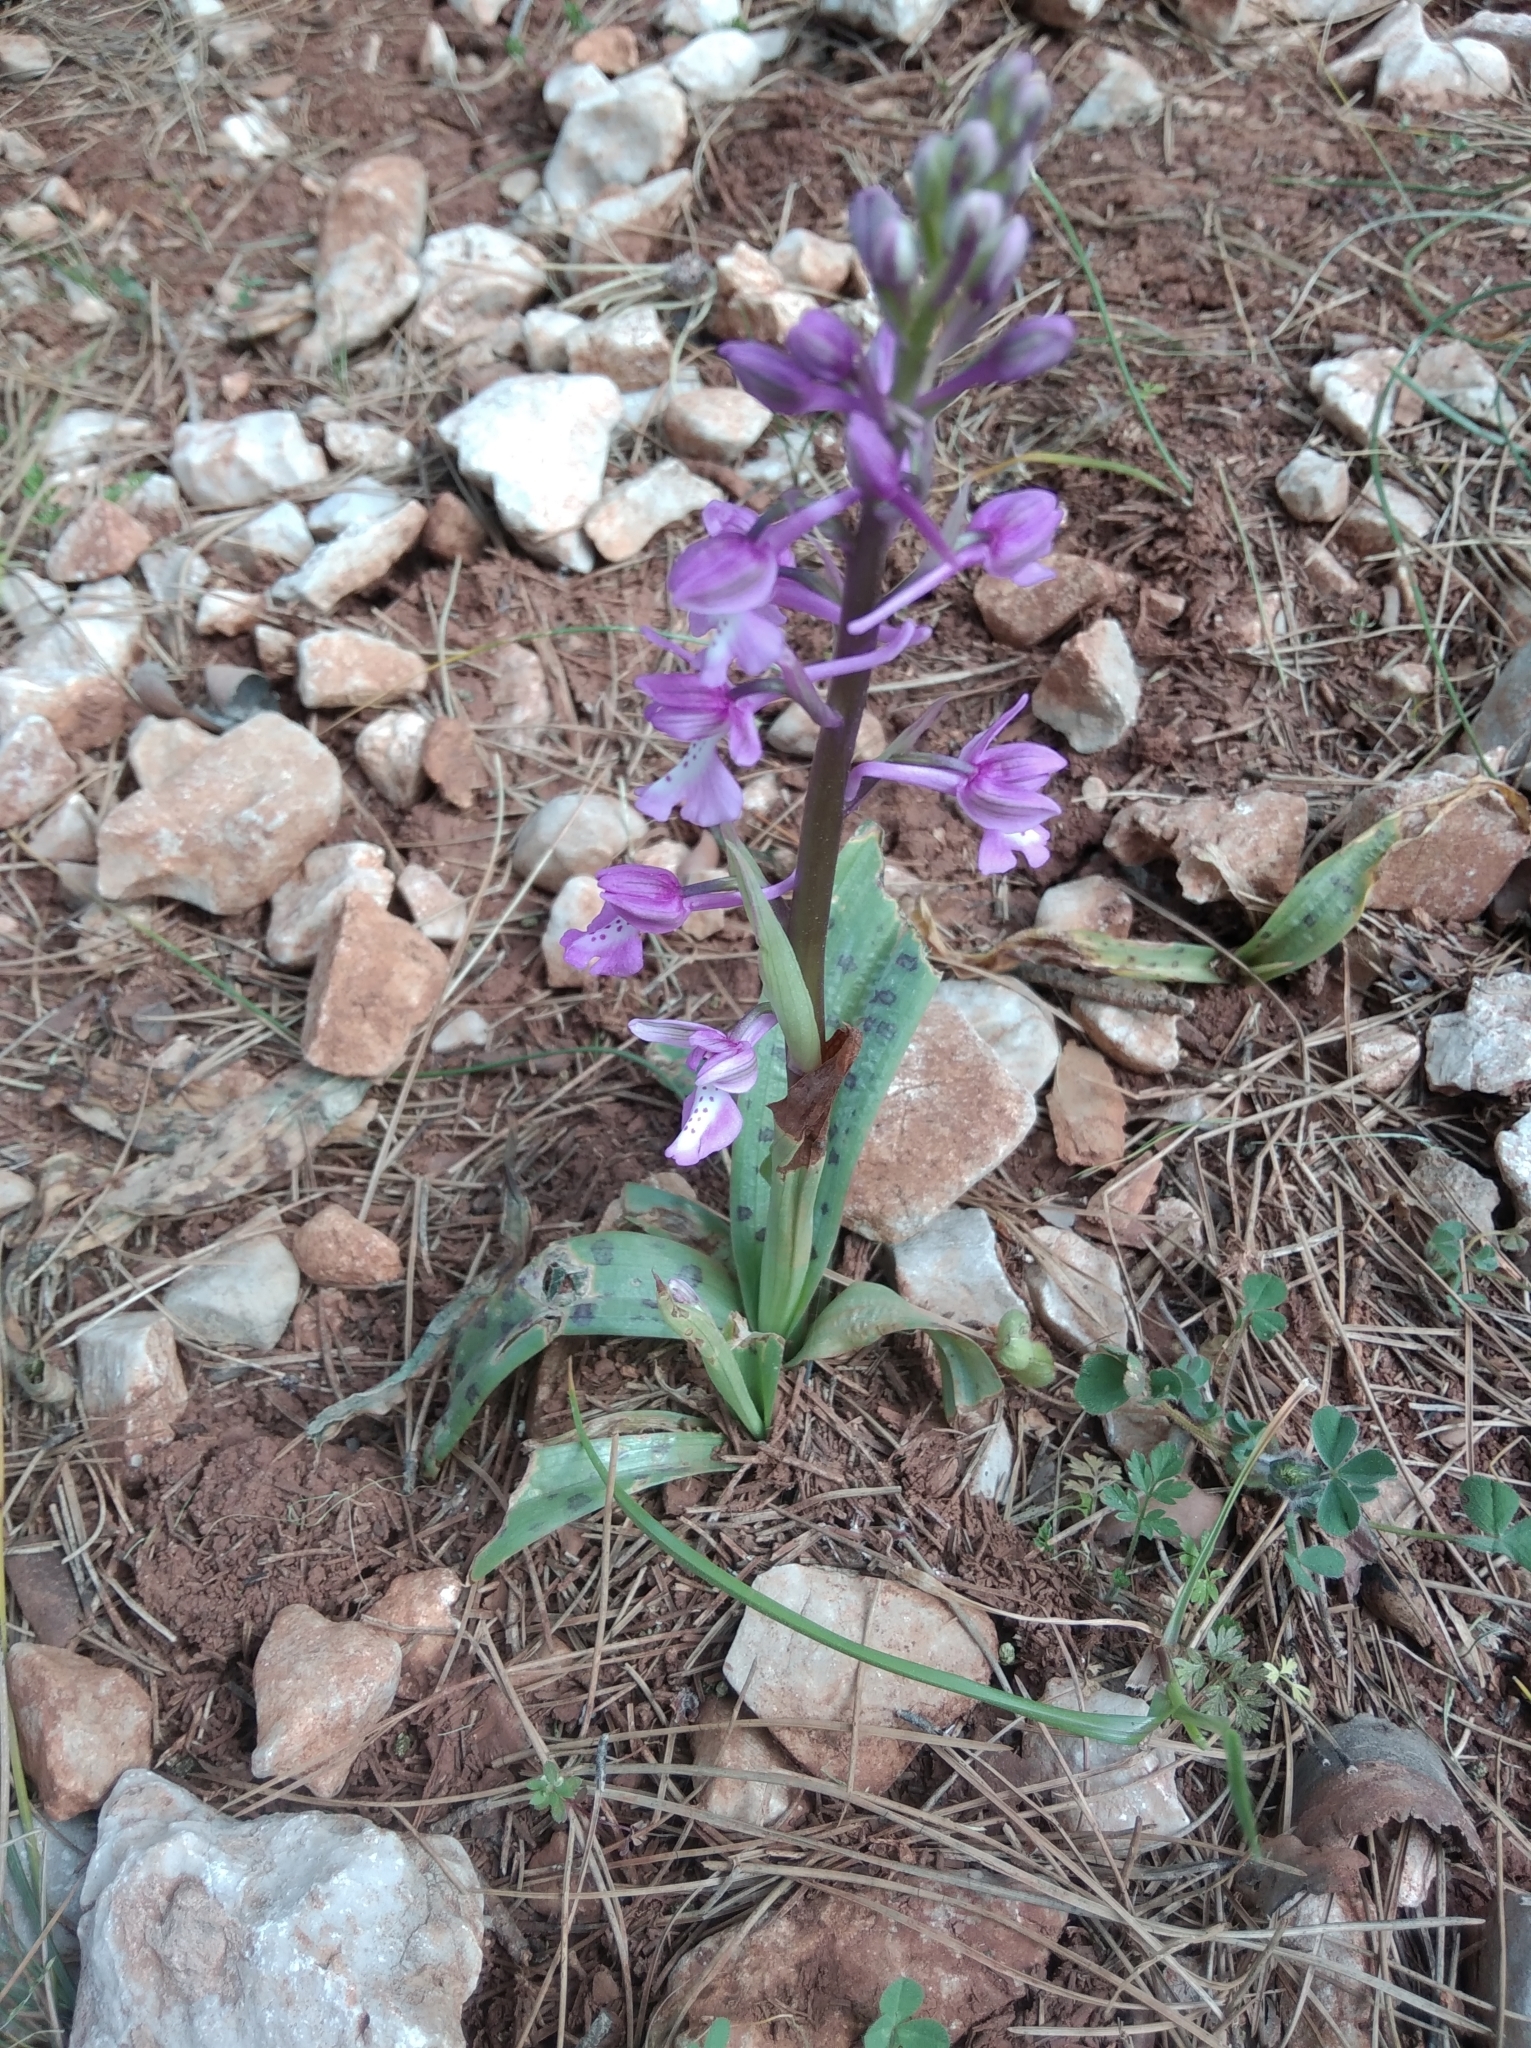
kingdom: Plantae
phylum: Tracheophyta
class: Liliopsida
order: Asparagales
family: Orchidaceae
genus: Orchis
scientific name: Orchis anatolica
